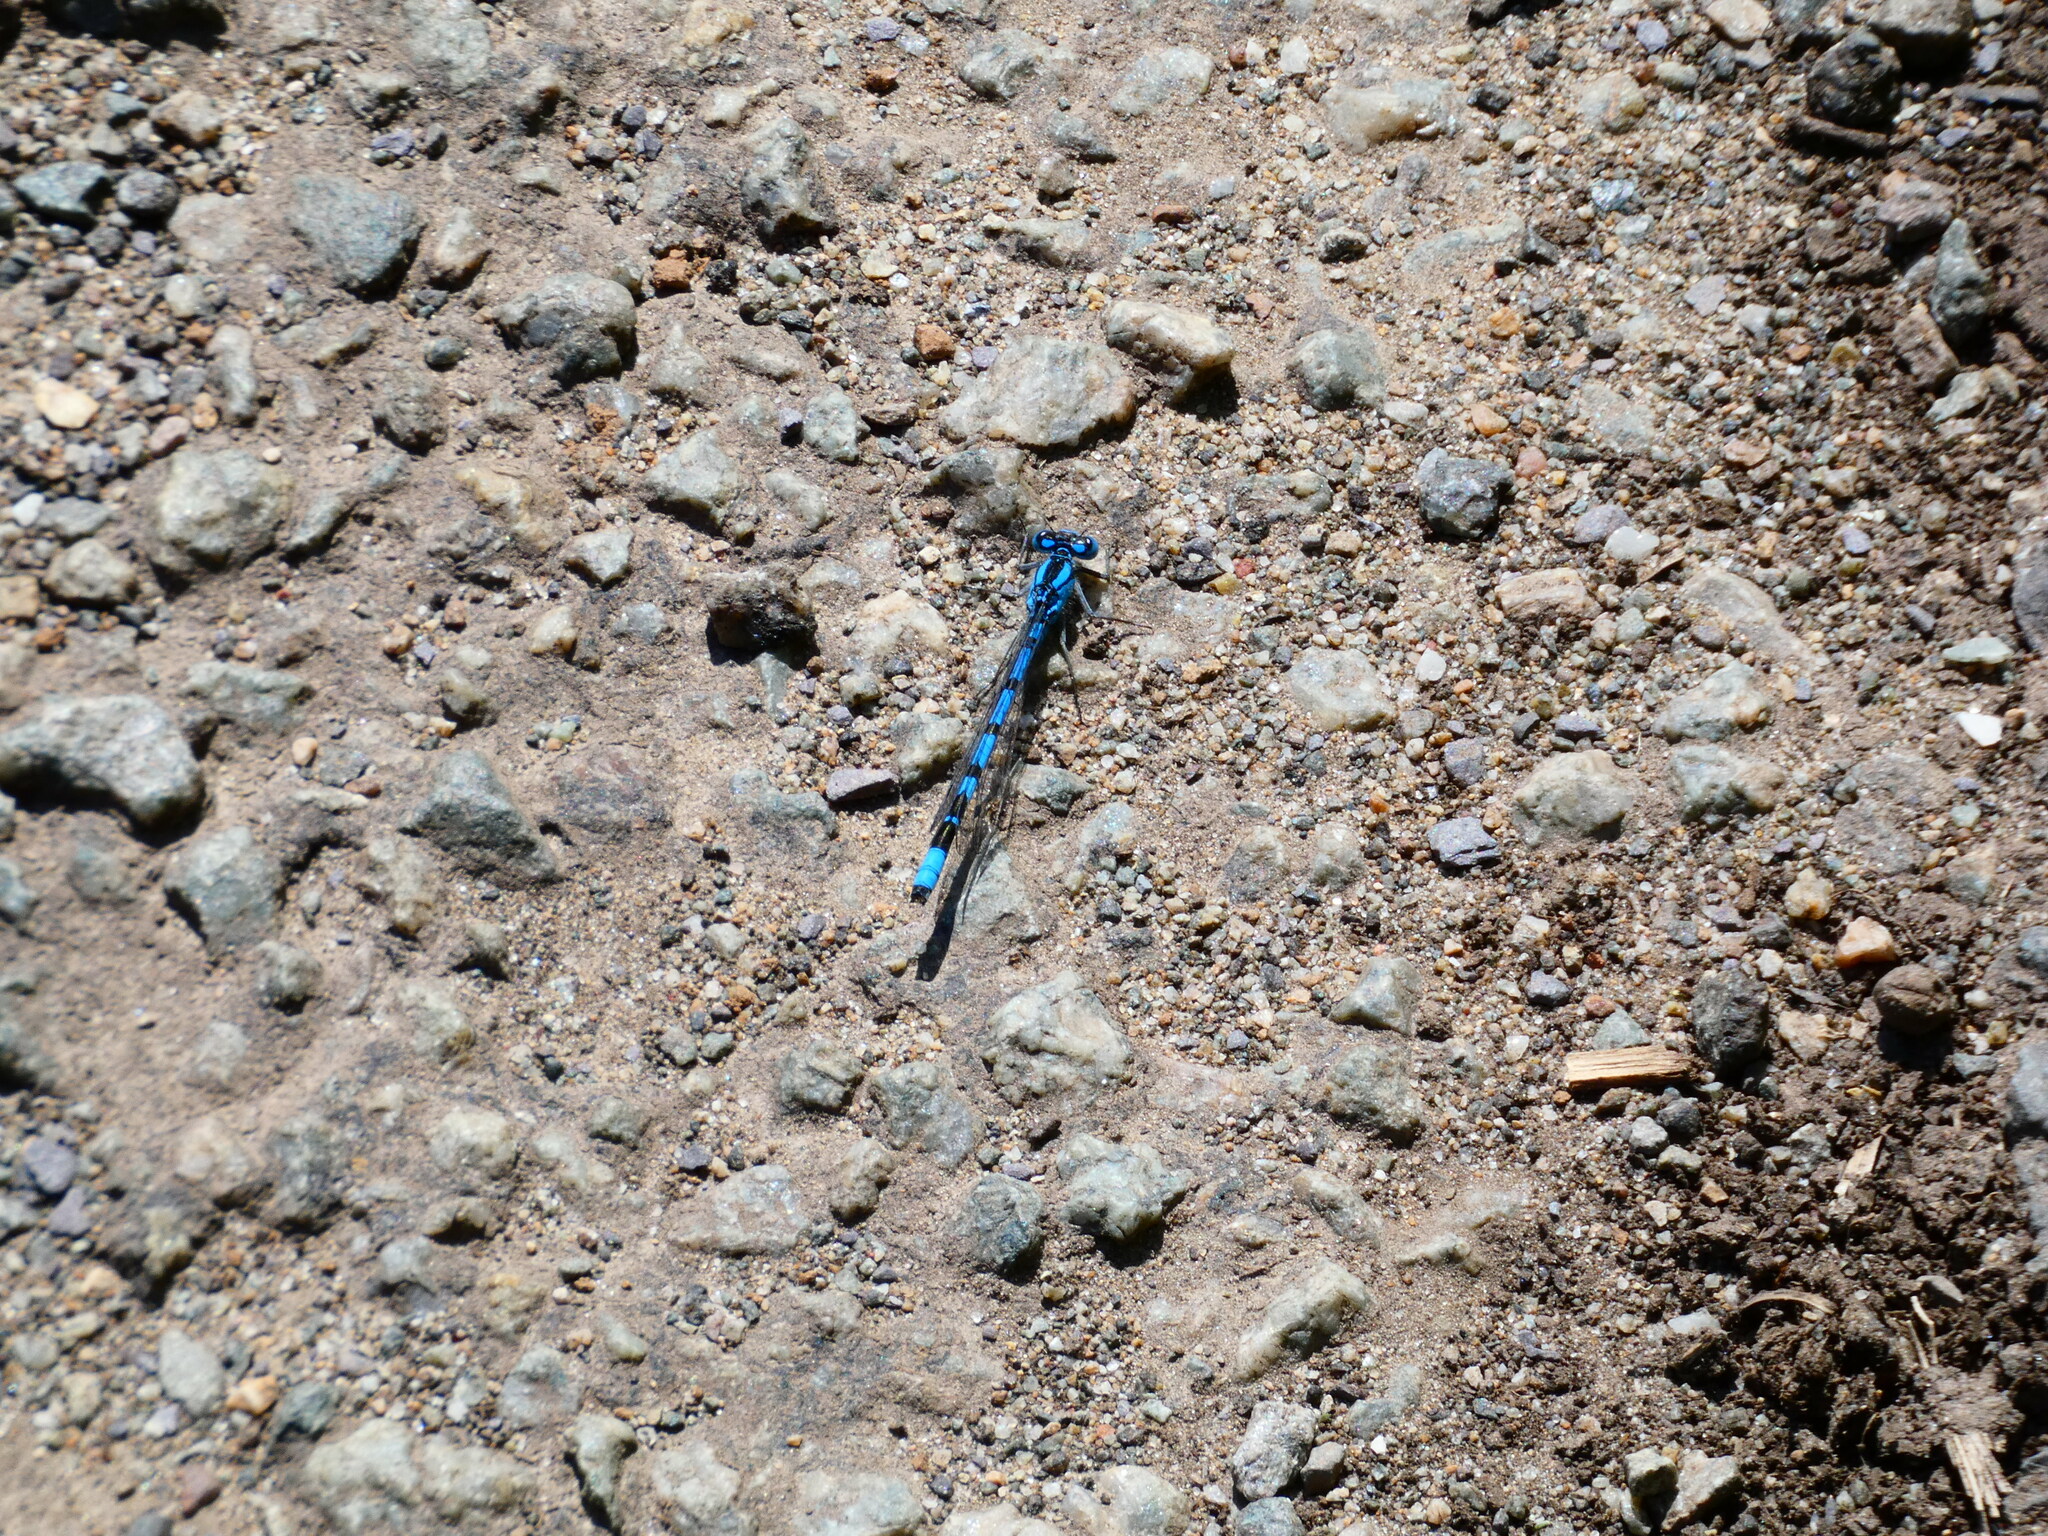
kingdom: Animalia
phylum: Arthropoda
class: Insecta
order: Odonata
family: Coenagrionidae
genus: Enallagma
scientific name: Enallagma cyathigerum
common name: Common blue damselfly
